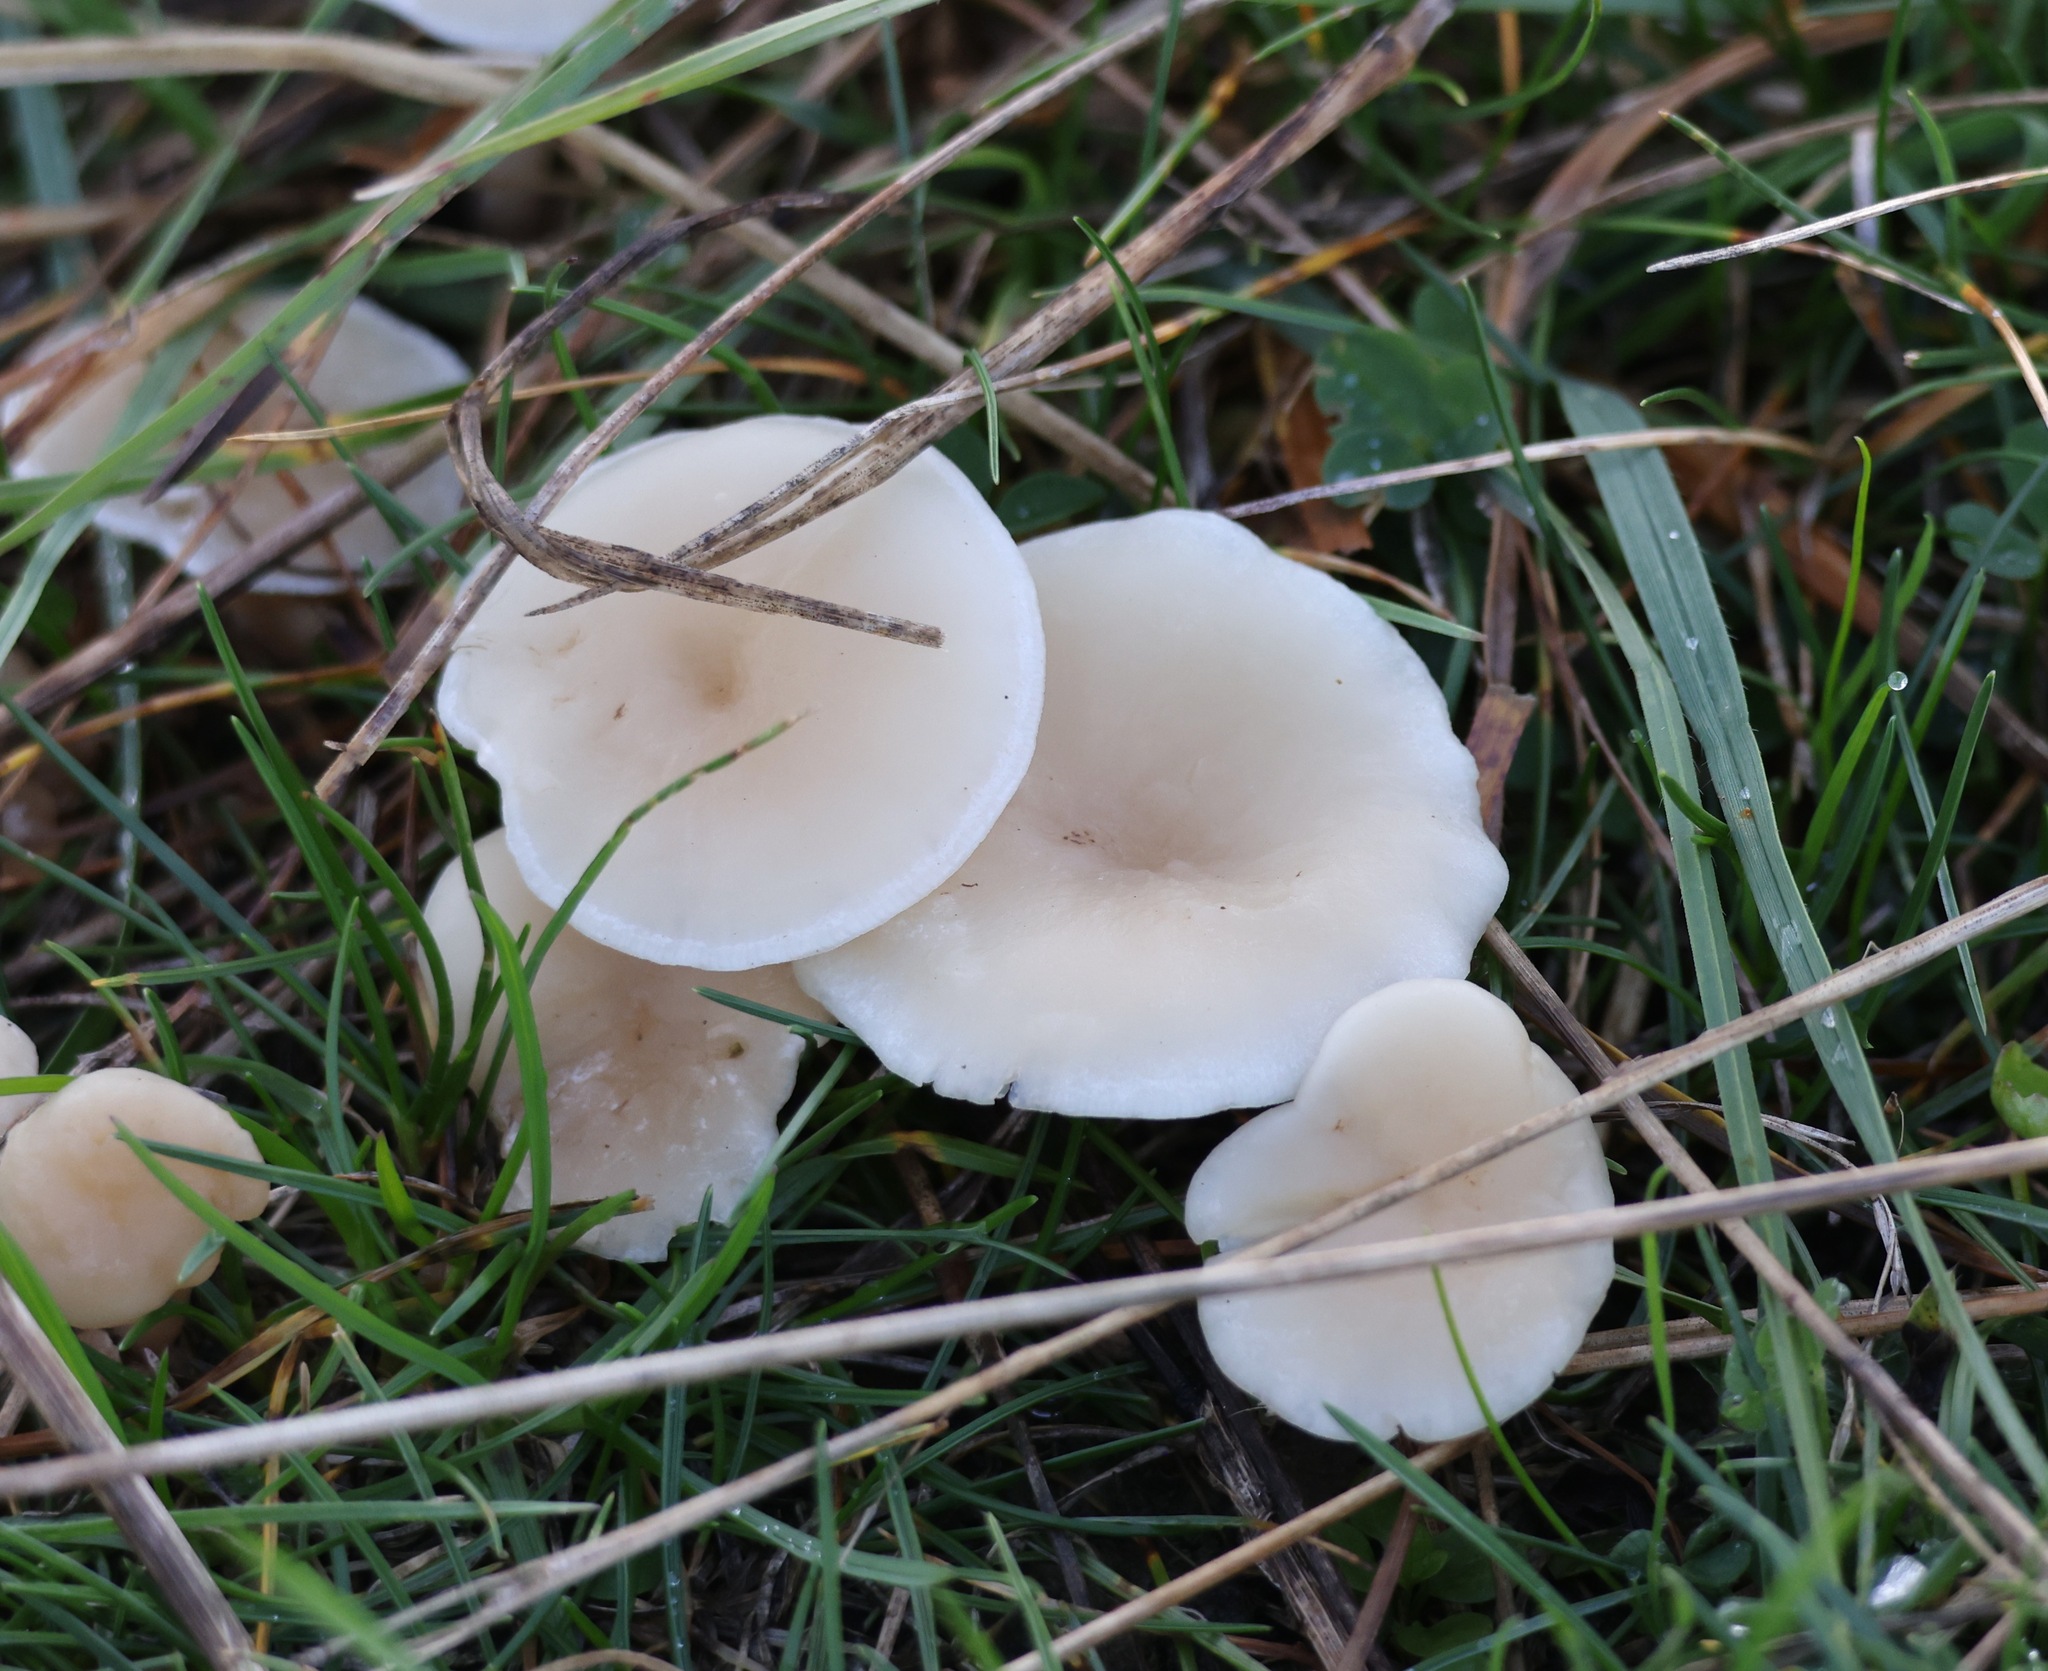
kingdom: Fungi
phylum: Basidiomycota
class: Agaricomycetes
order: Agaricales
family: Tricholomataceae
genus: Clitocybe
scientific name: Clitocybe fragrans
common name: Fragrant funnel
